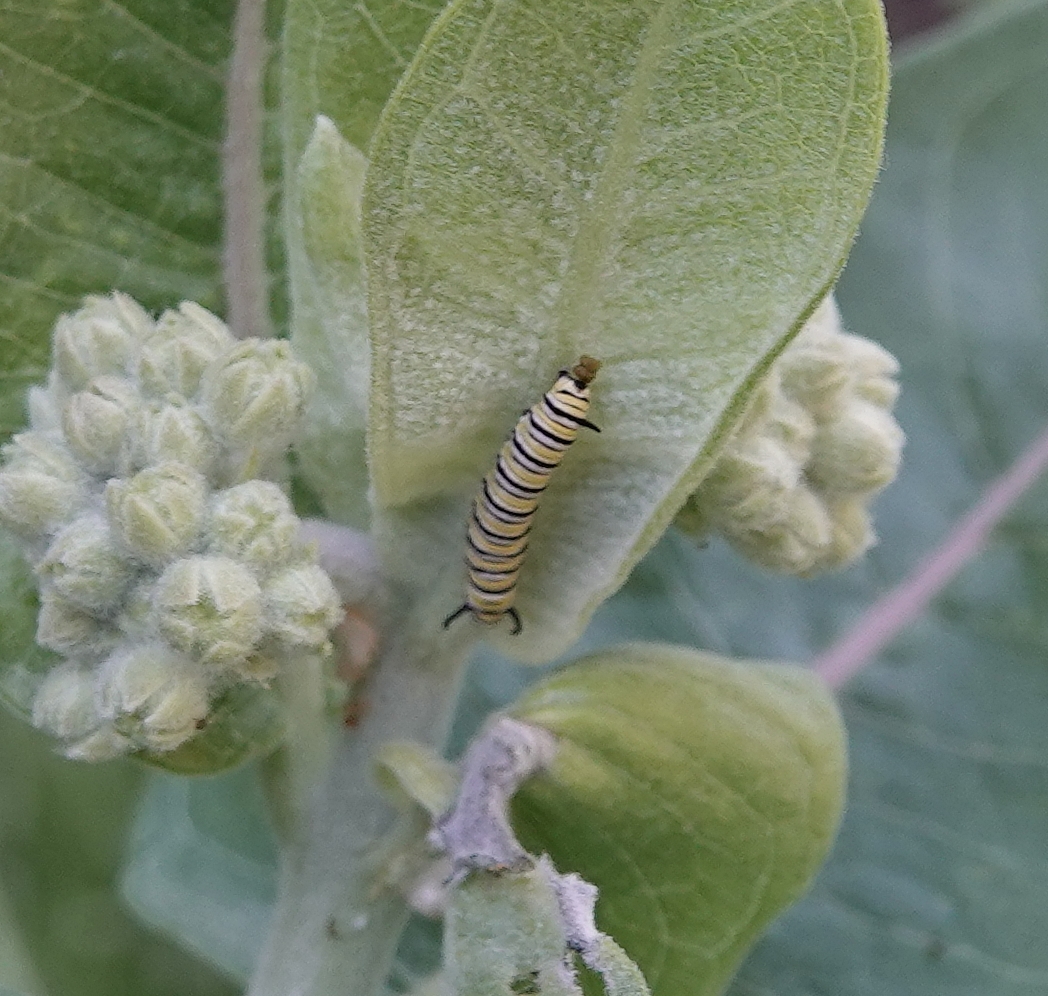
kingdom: Animalia
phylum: Arthropoda
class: Insecta
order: Lepidoptera
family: Nymphalidae
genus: Danaus
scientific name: Danaus plexippus
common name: Monarch
